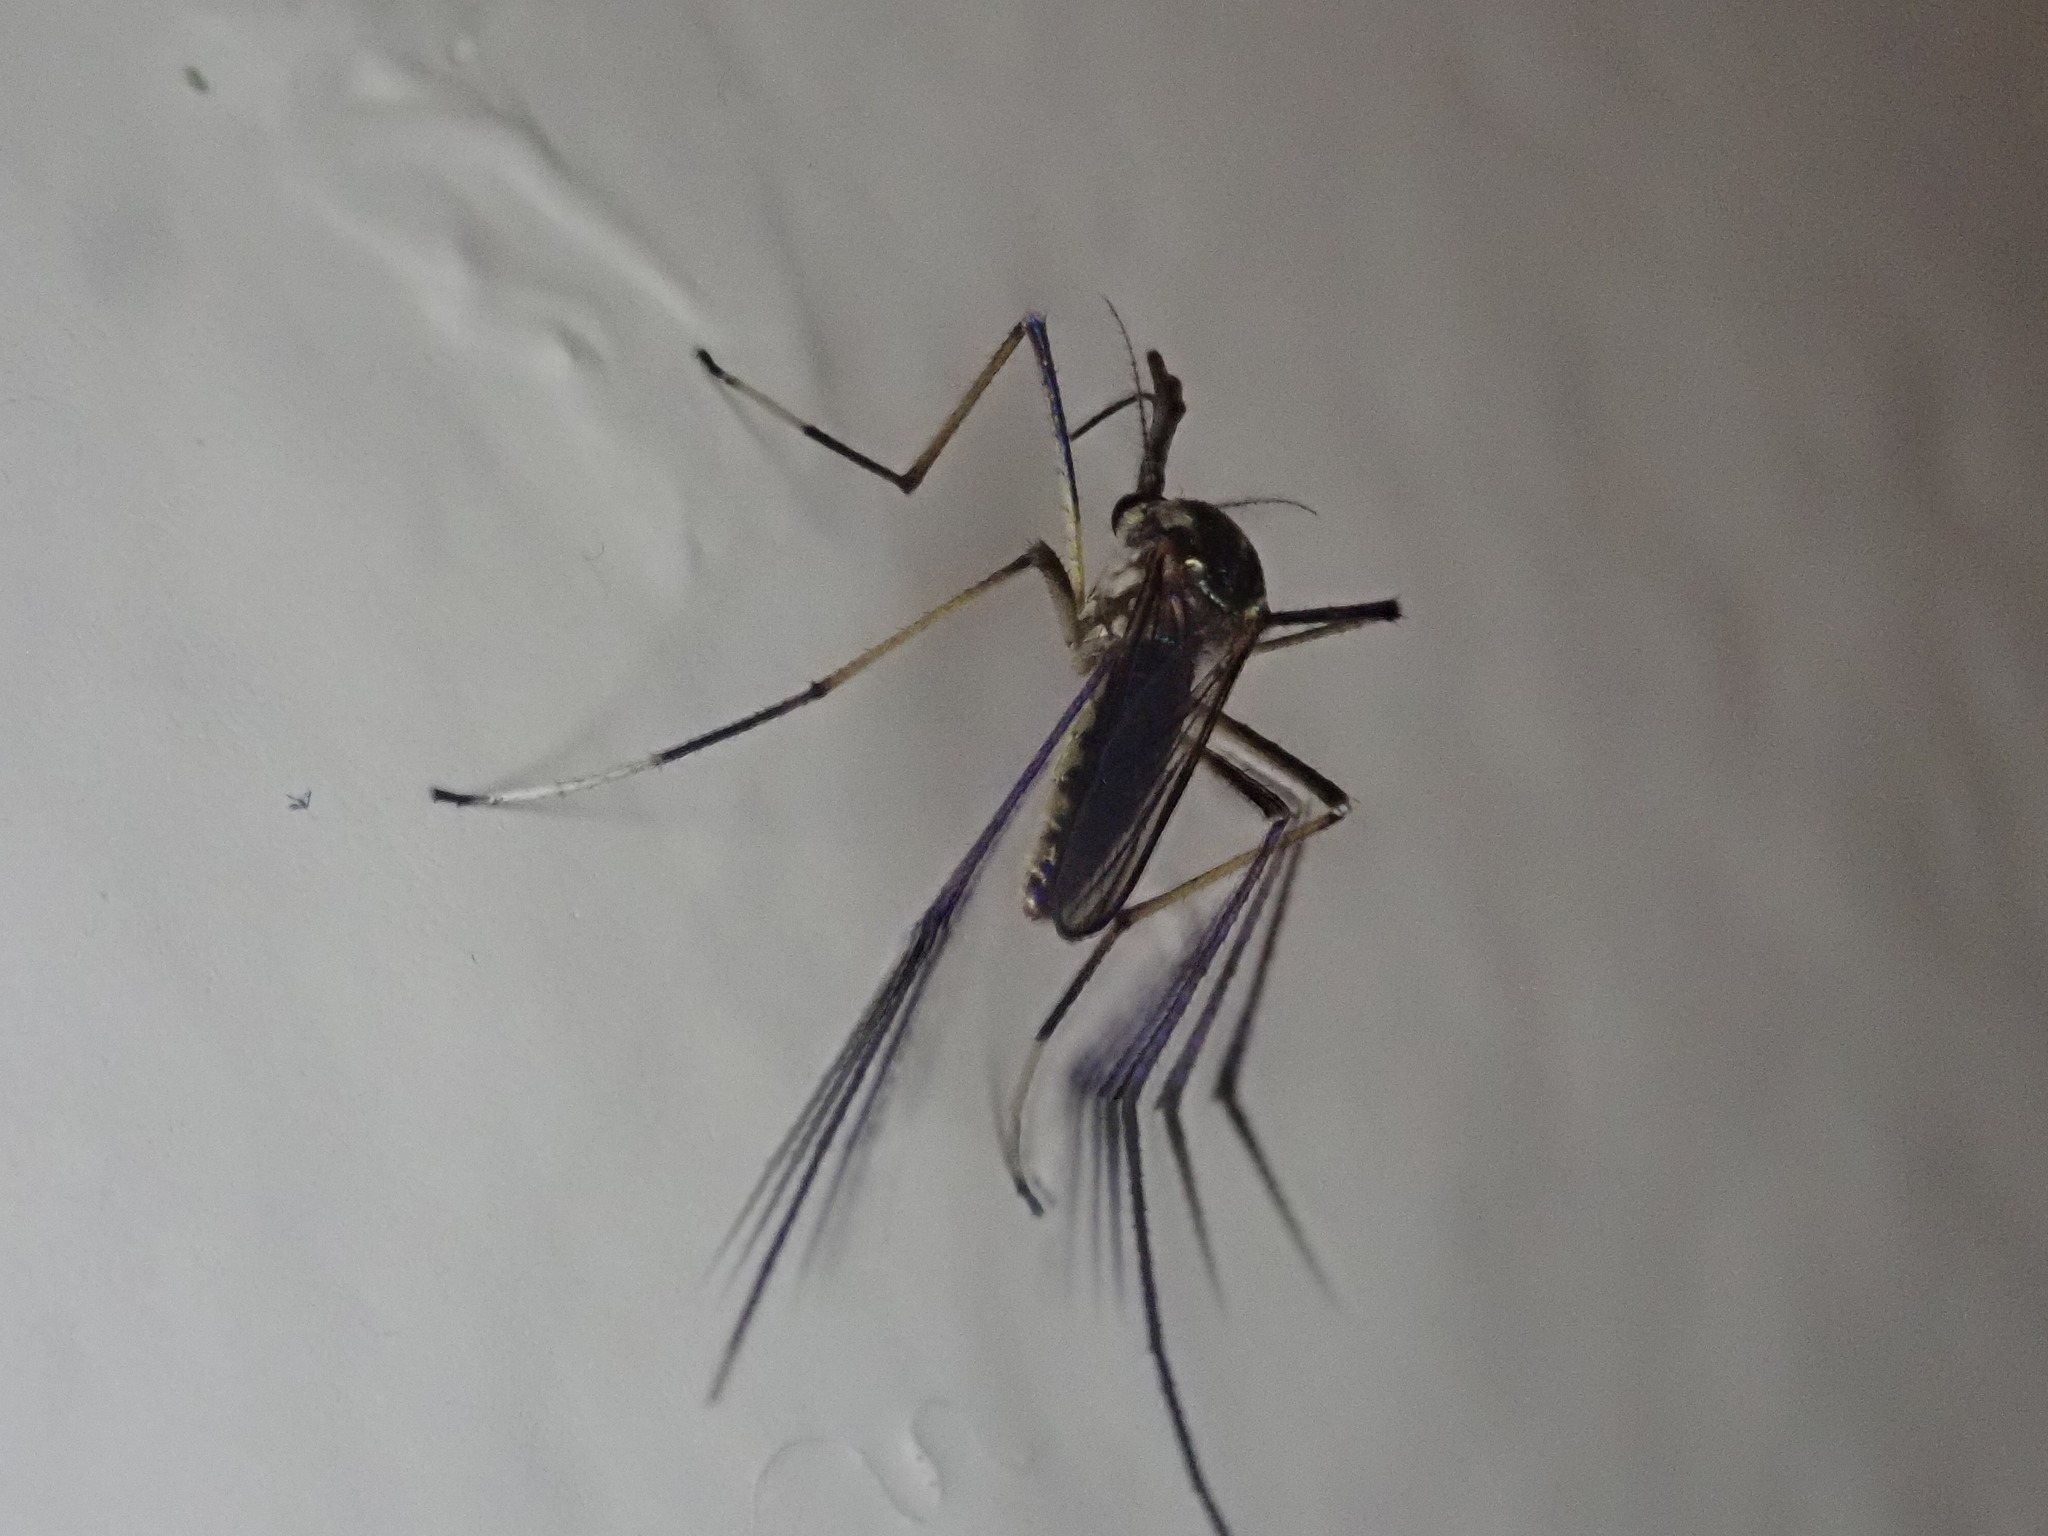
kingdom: Animalia
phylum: Arthropoda
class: Insecta
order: Diptera
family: Culicidae
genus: Toxorhynchites
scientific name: Toxorhynchites rutilus
